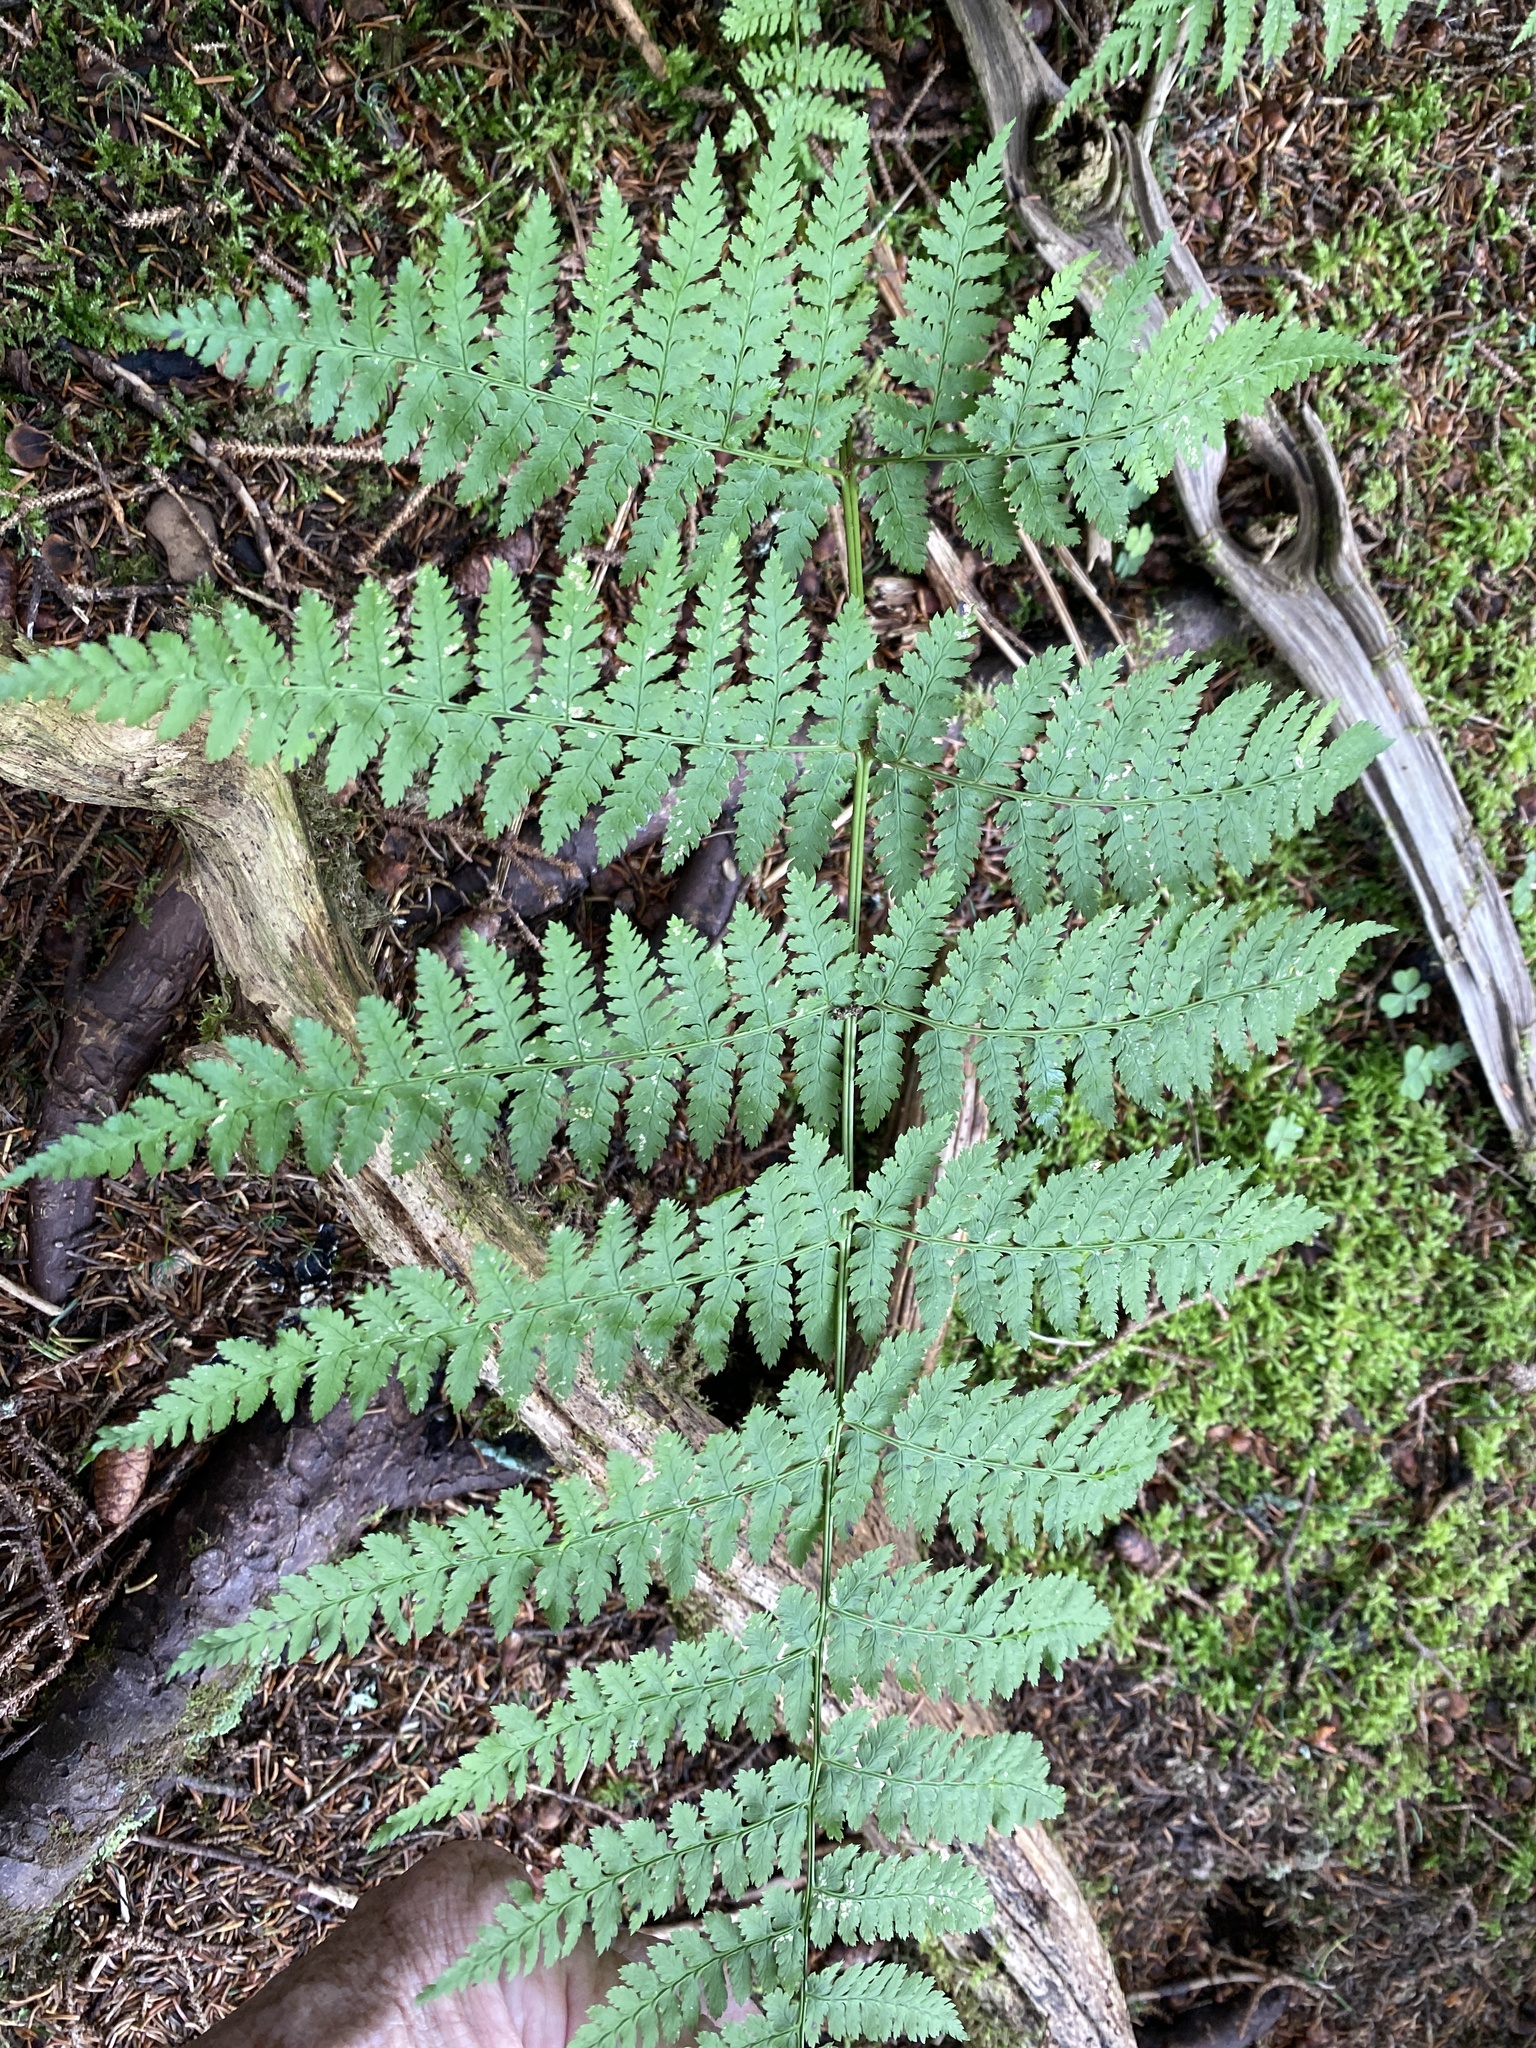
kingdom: Plantae
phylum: Tracheophyta
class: Polypodiopsida
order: Polypodiales
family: Dryopteridaceae
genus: Dryopteris
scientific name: Dryopteris campyloptera
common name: Mountain wood fern
